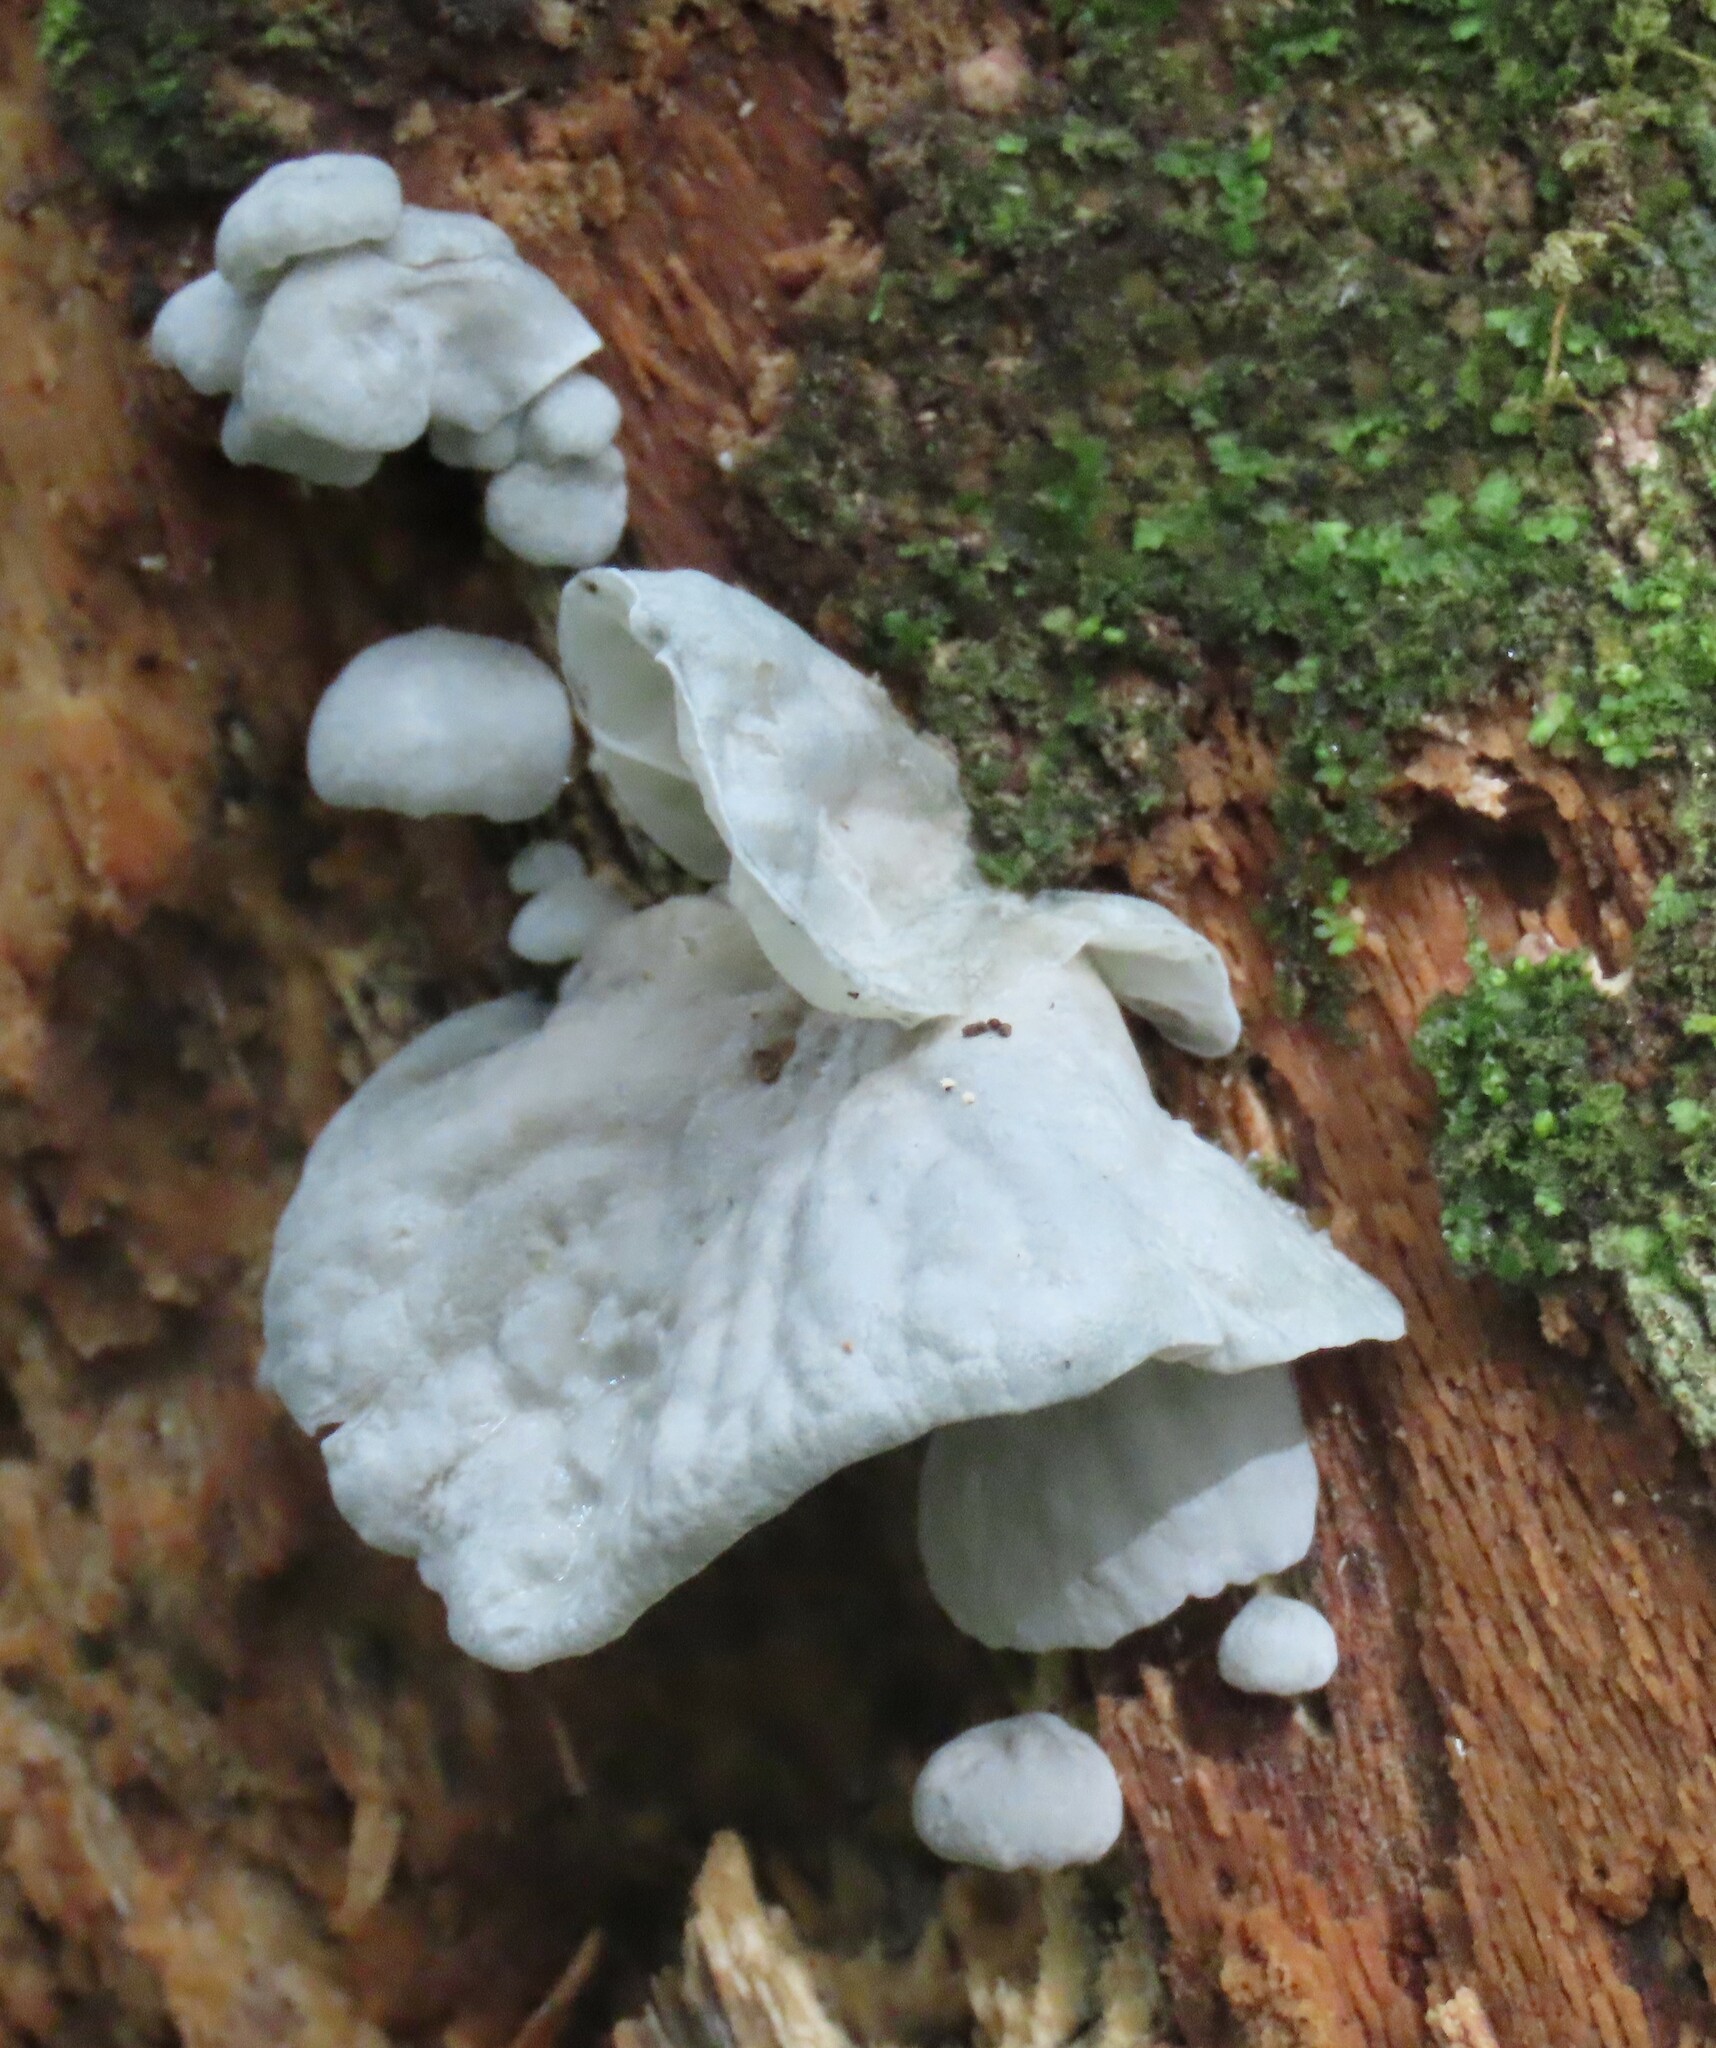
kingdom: Fungi
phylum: Basidiomycota
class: Agaricomycetes
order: Agaricales
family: Marasmiaceae
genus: Campanella
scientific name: Campanella tristis
